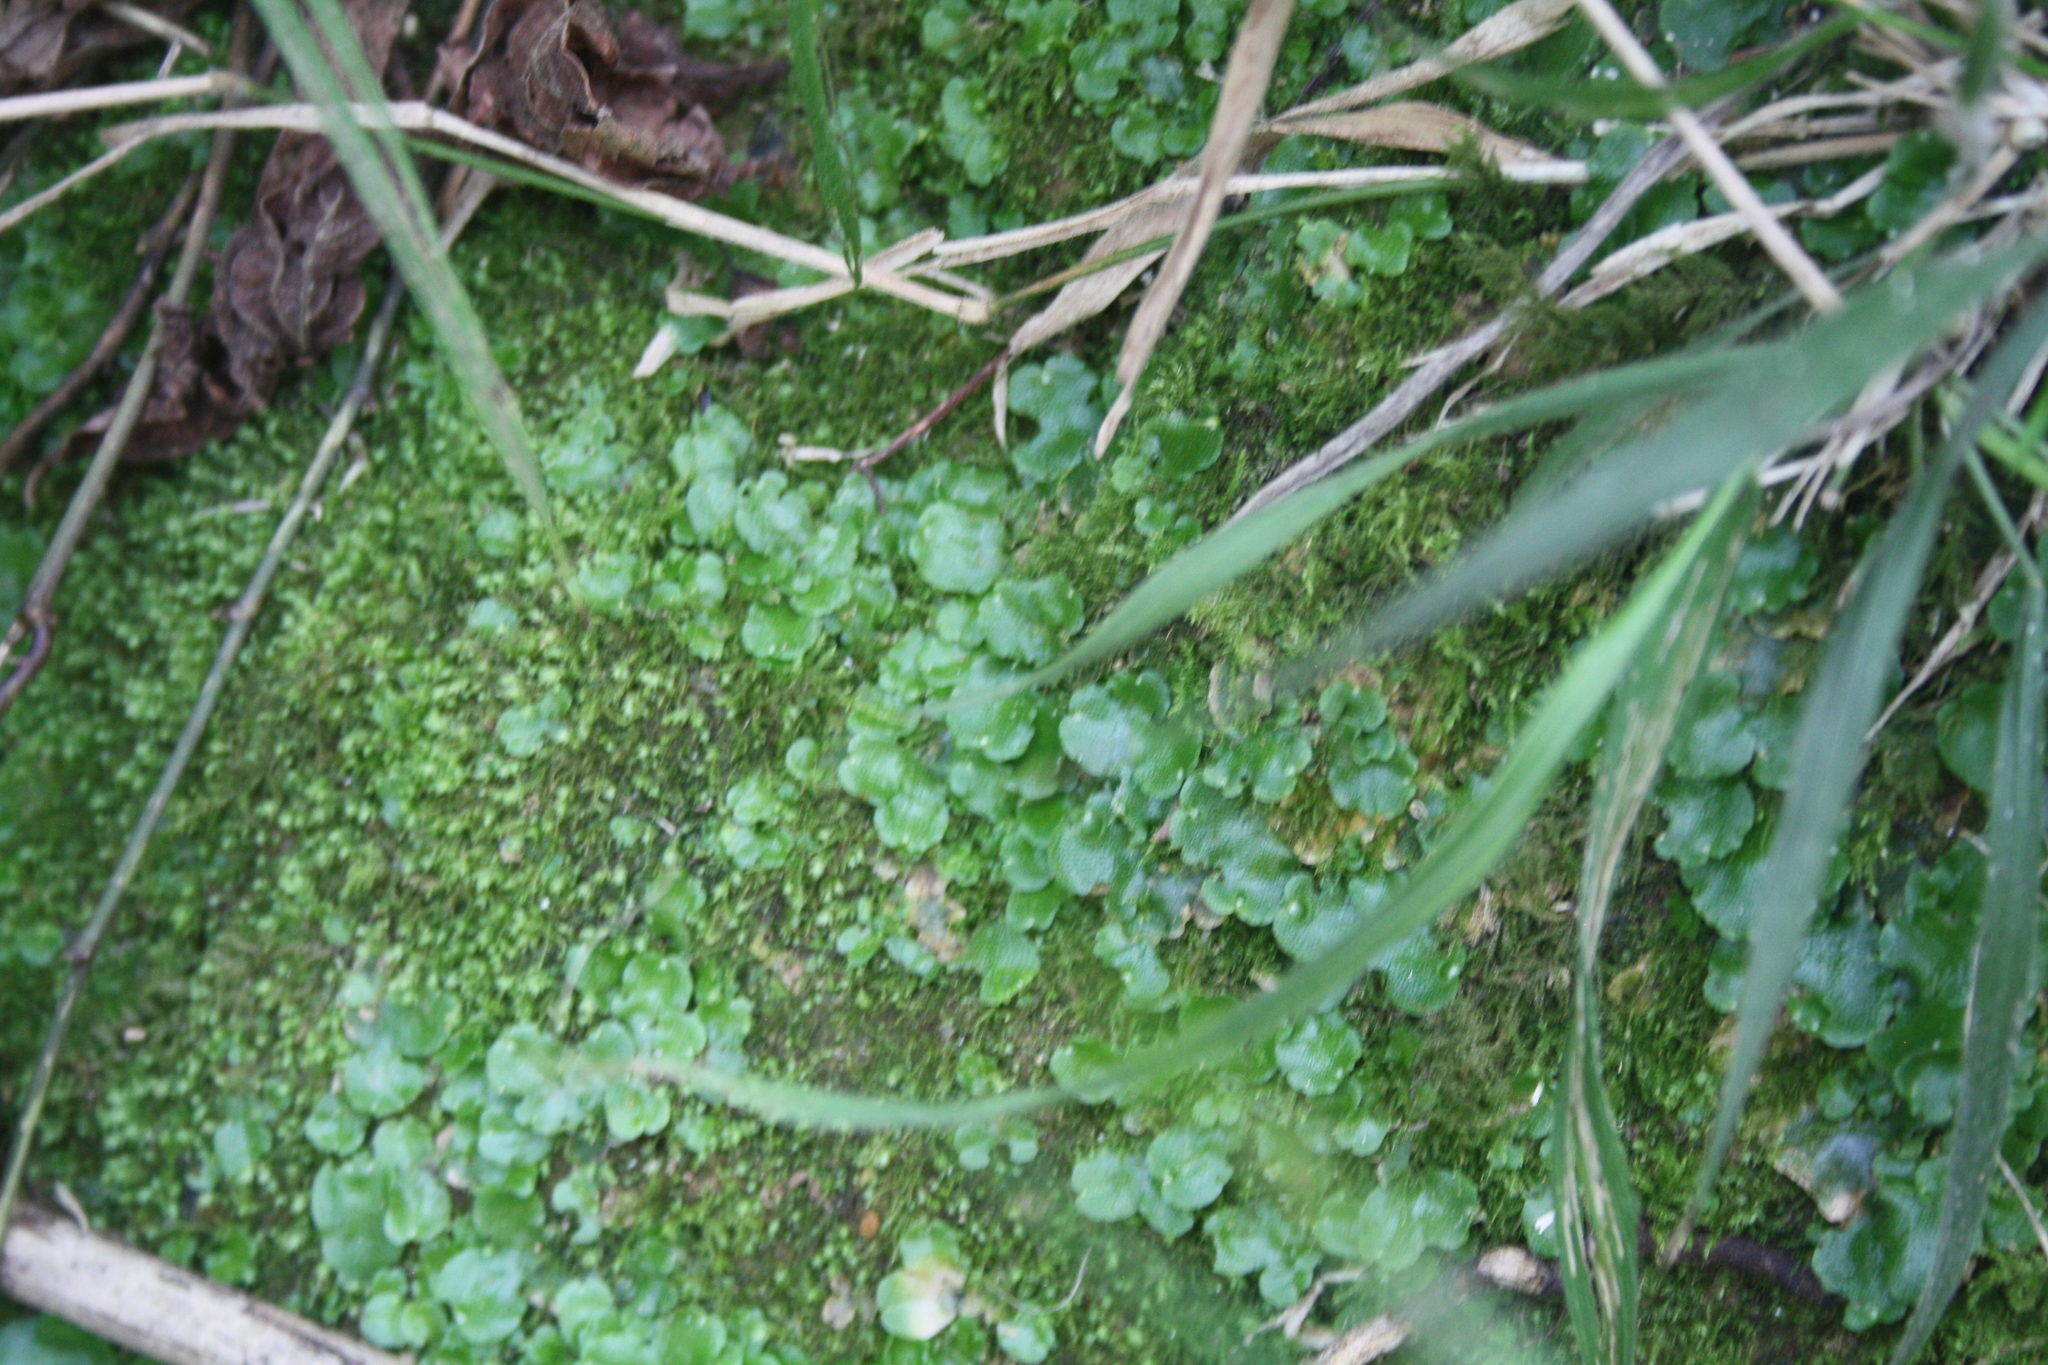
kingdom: Plantae
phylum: Marchantiophyta
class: Marchantiopsida
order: Lunulariales
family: Lunulariaceae
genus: Lunularia
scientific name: Lunularia cruciata
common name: Crescent-cup liverwort
